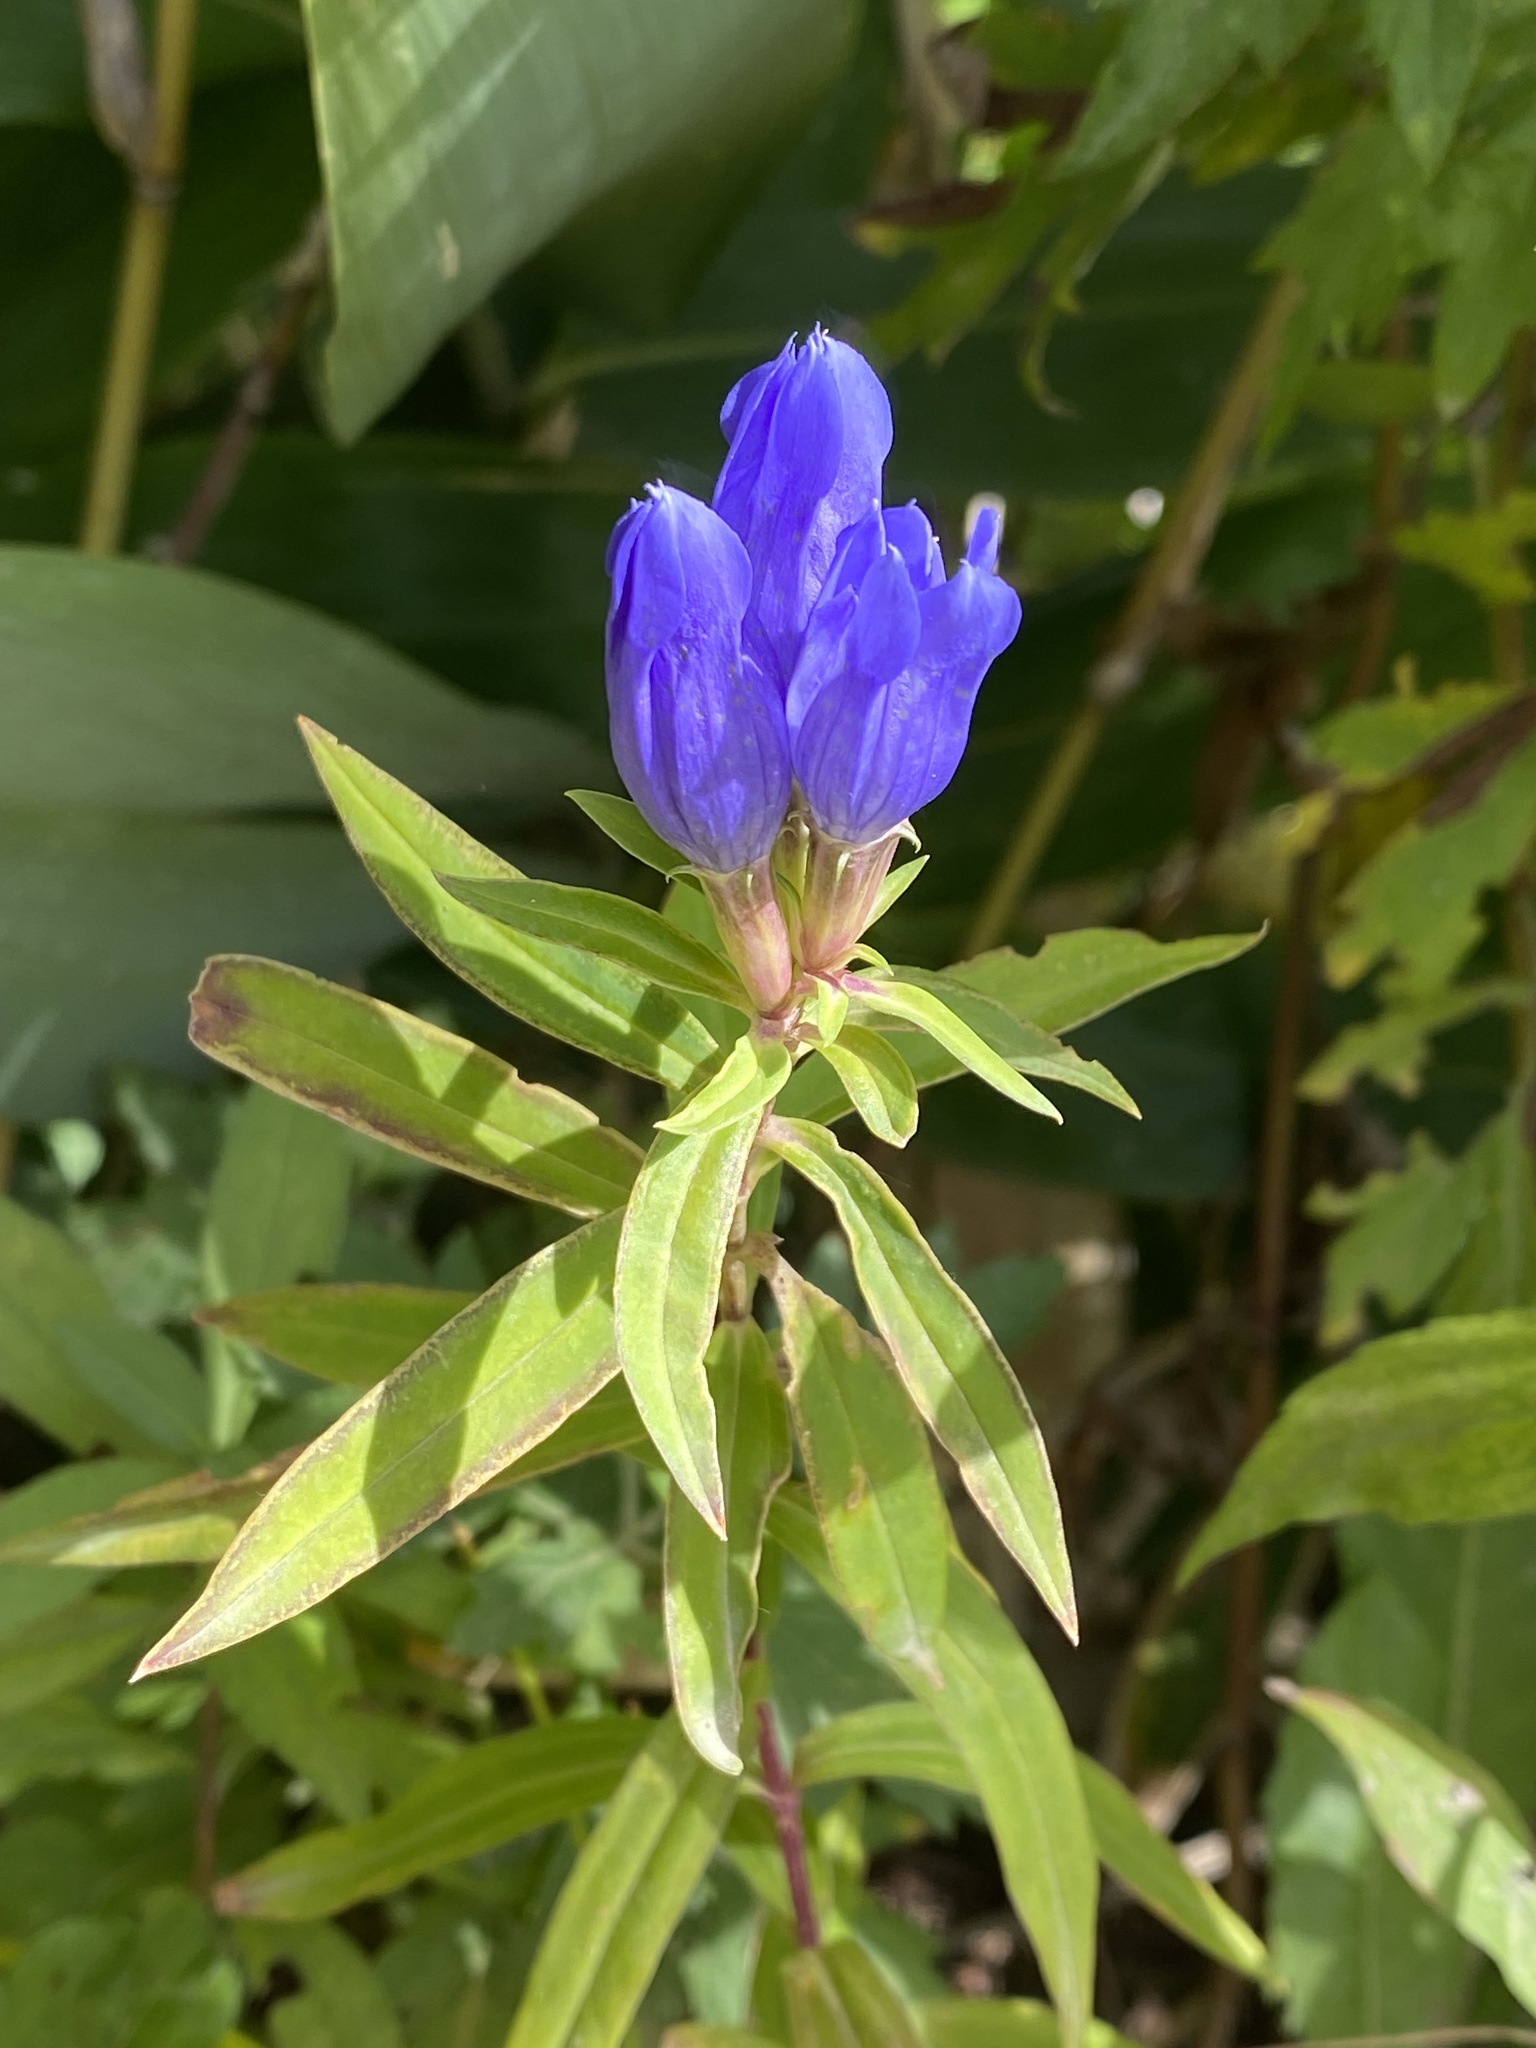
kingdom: Plantae
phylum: Tracheophyta
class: Magnoliopsida
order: Gentianales
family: Gentianaceae
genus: Gentiana
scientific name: Gentiana triflora
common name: Three-flower gentian
